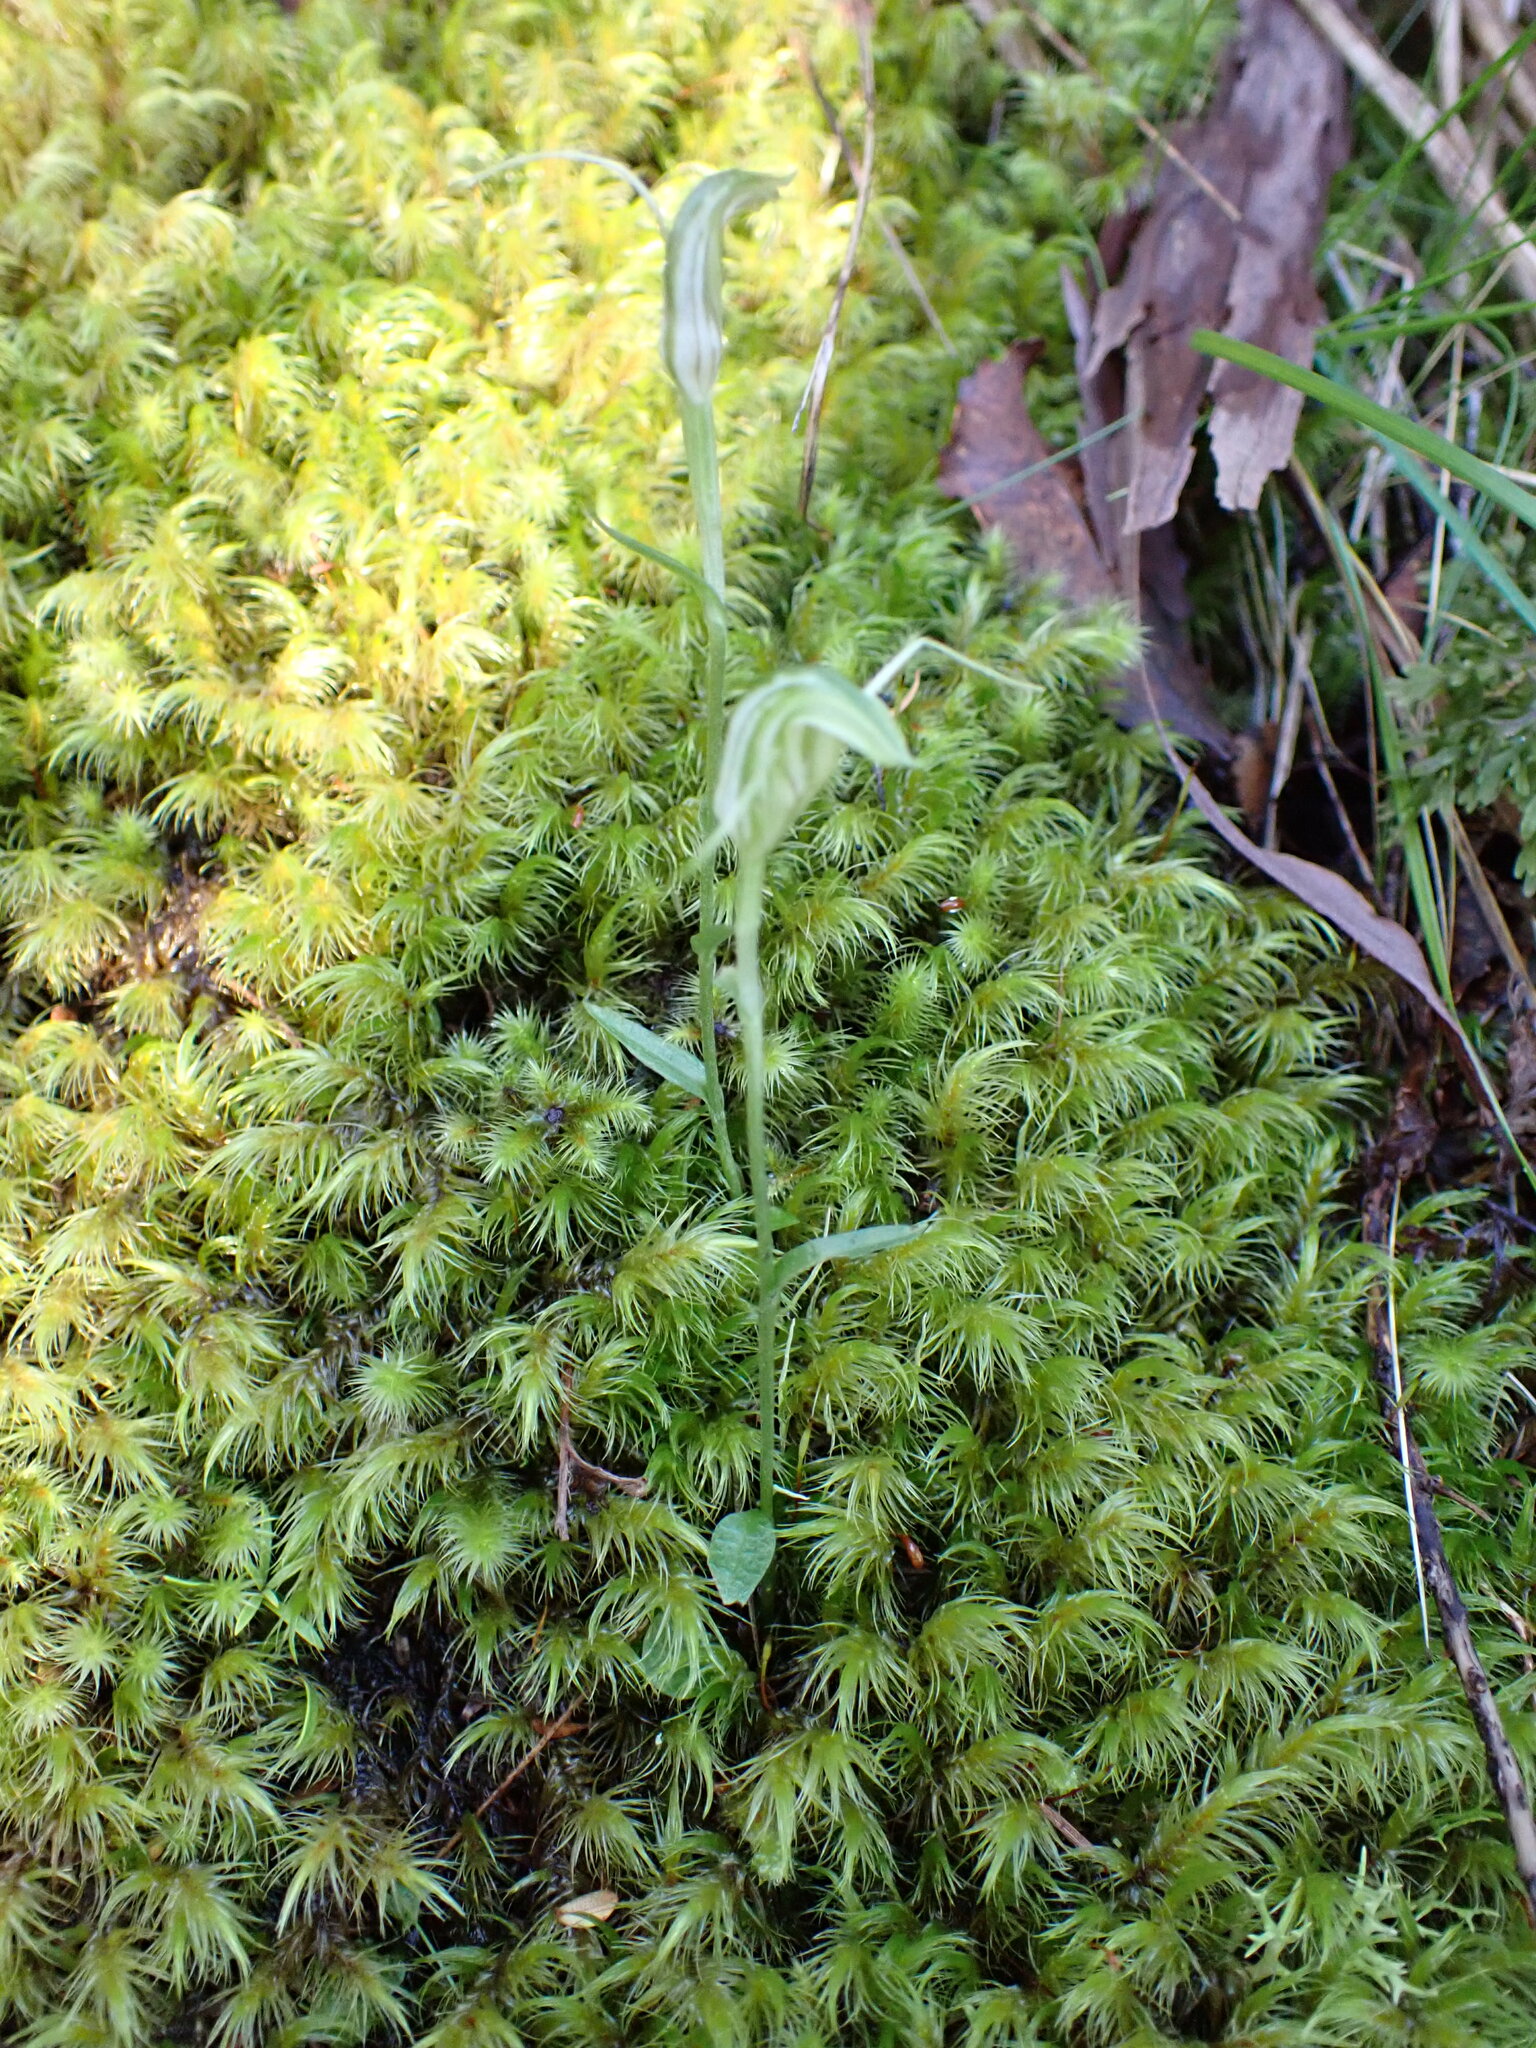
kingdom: Plantae
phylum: Tracheophyta
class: Liliopsida
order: Asparagales
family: Orchidaceae
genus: Pterostylis
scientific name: Pterostylis trullifolia
